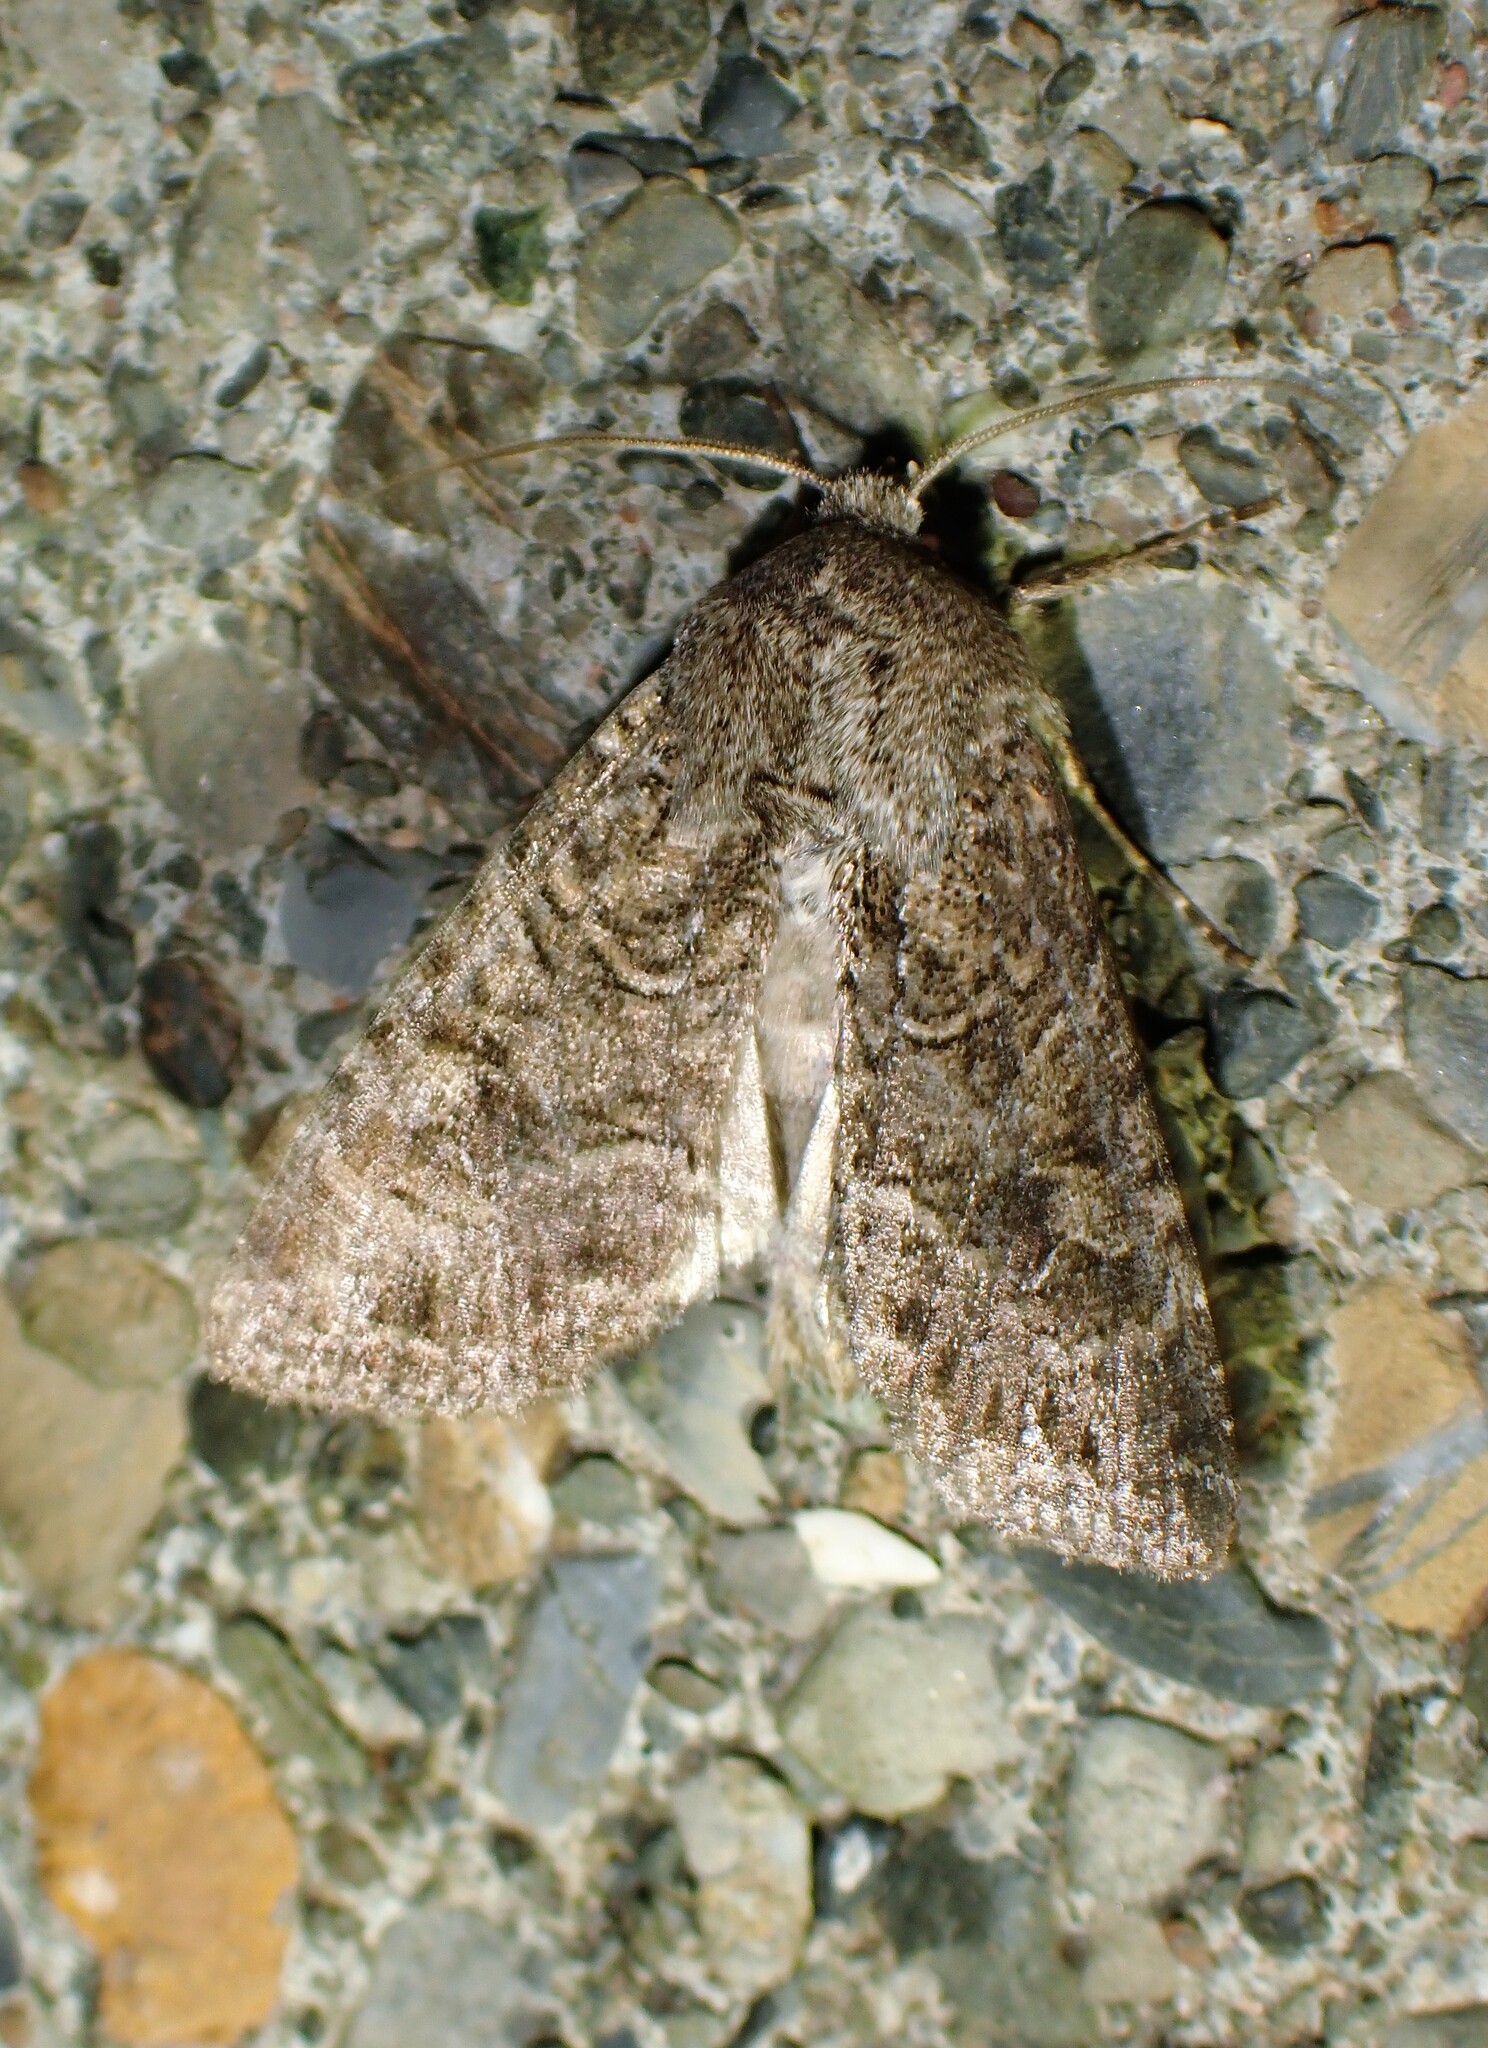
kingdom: Animalia
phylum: Arthropoda
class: Insecta
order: Lepidoptera
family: Noctuidae
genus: Apamea
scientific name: Apamea devastator
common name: Glassy cutworm
